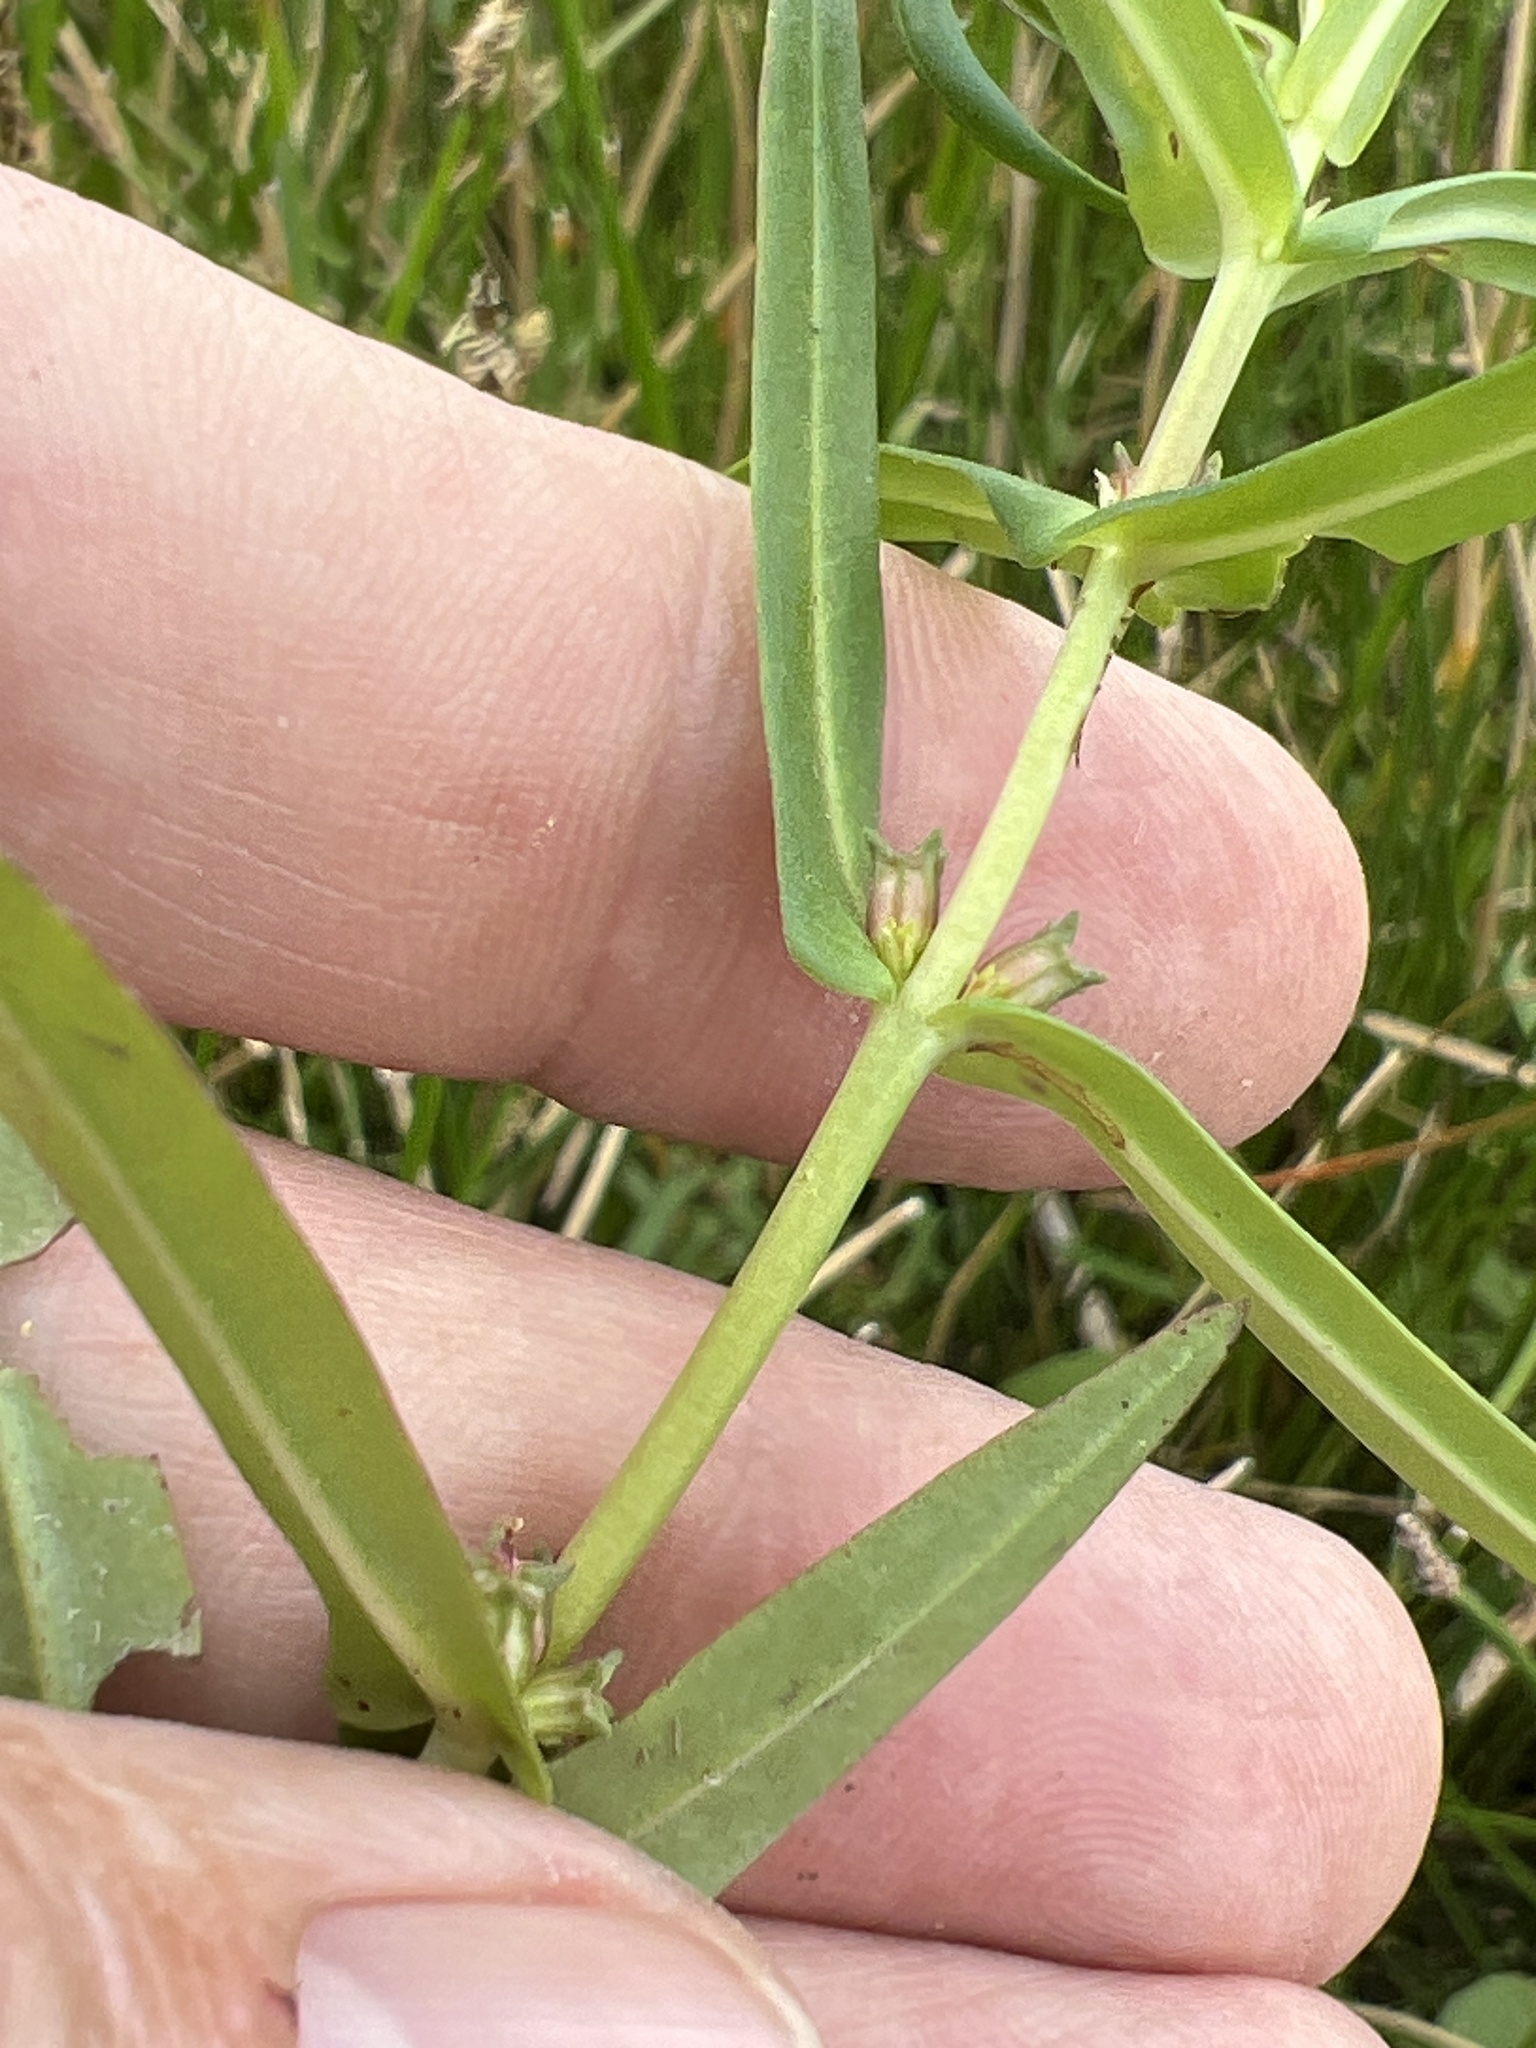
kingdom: Plantae
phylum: Tracheophyta
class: Magnoliopsida
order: Myrtales
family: Lythraceae
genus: Ammannia
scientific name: Ammannia coccinea
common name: Valley redstem
